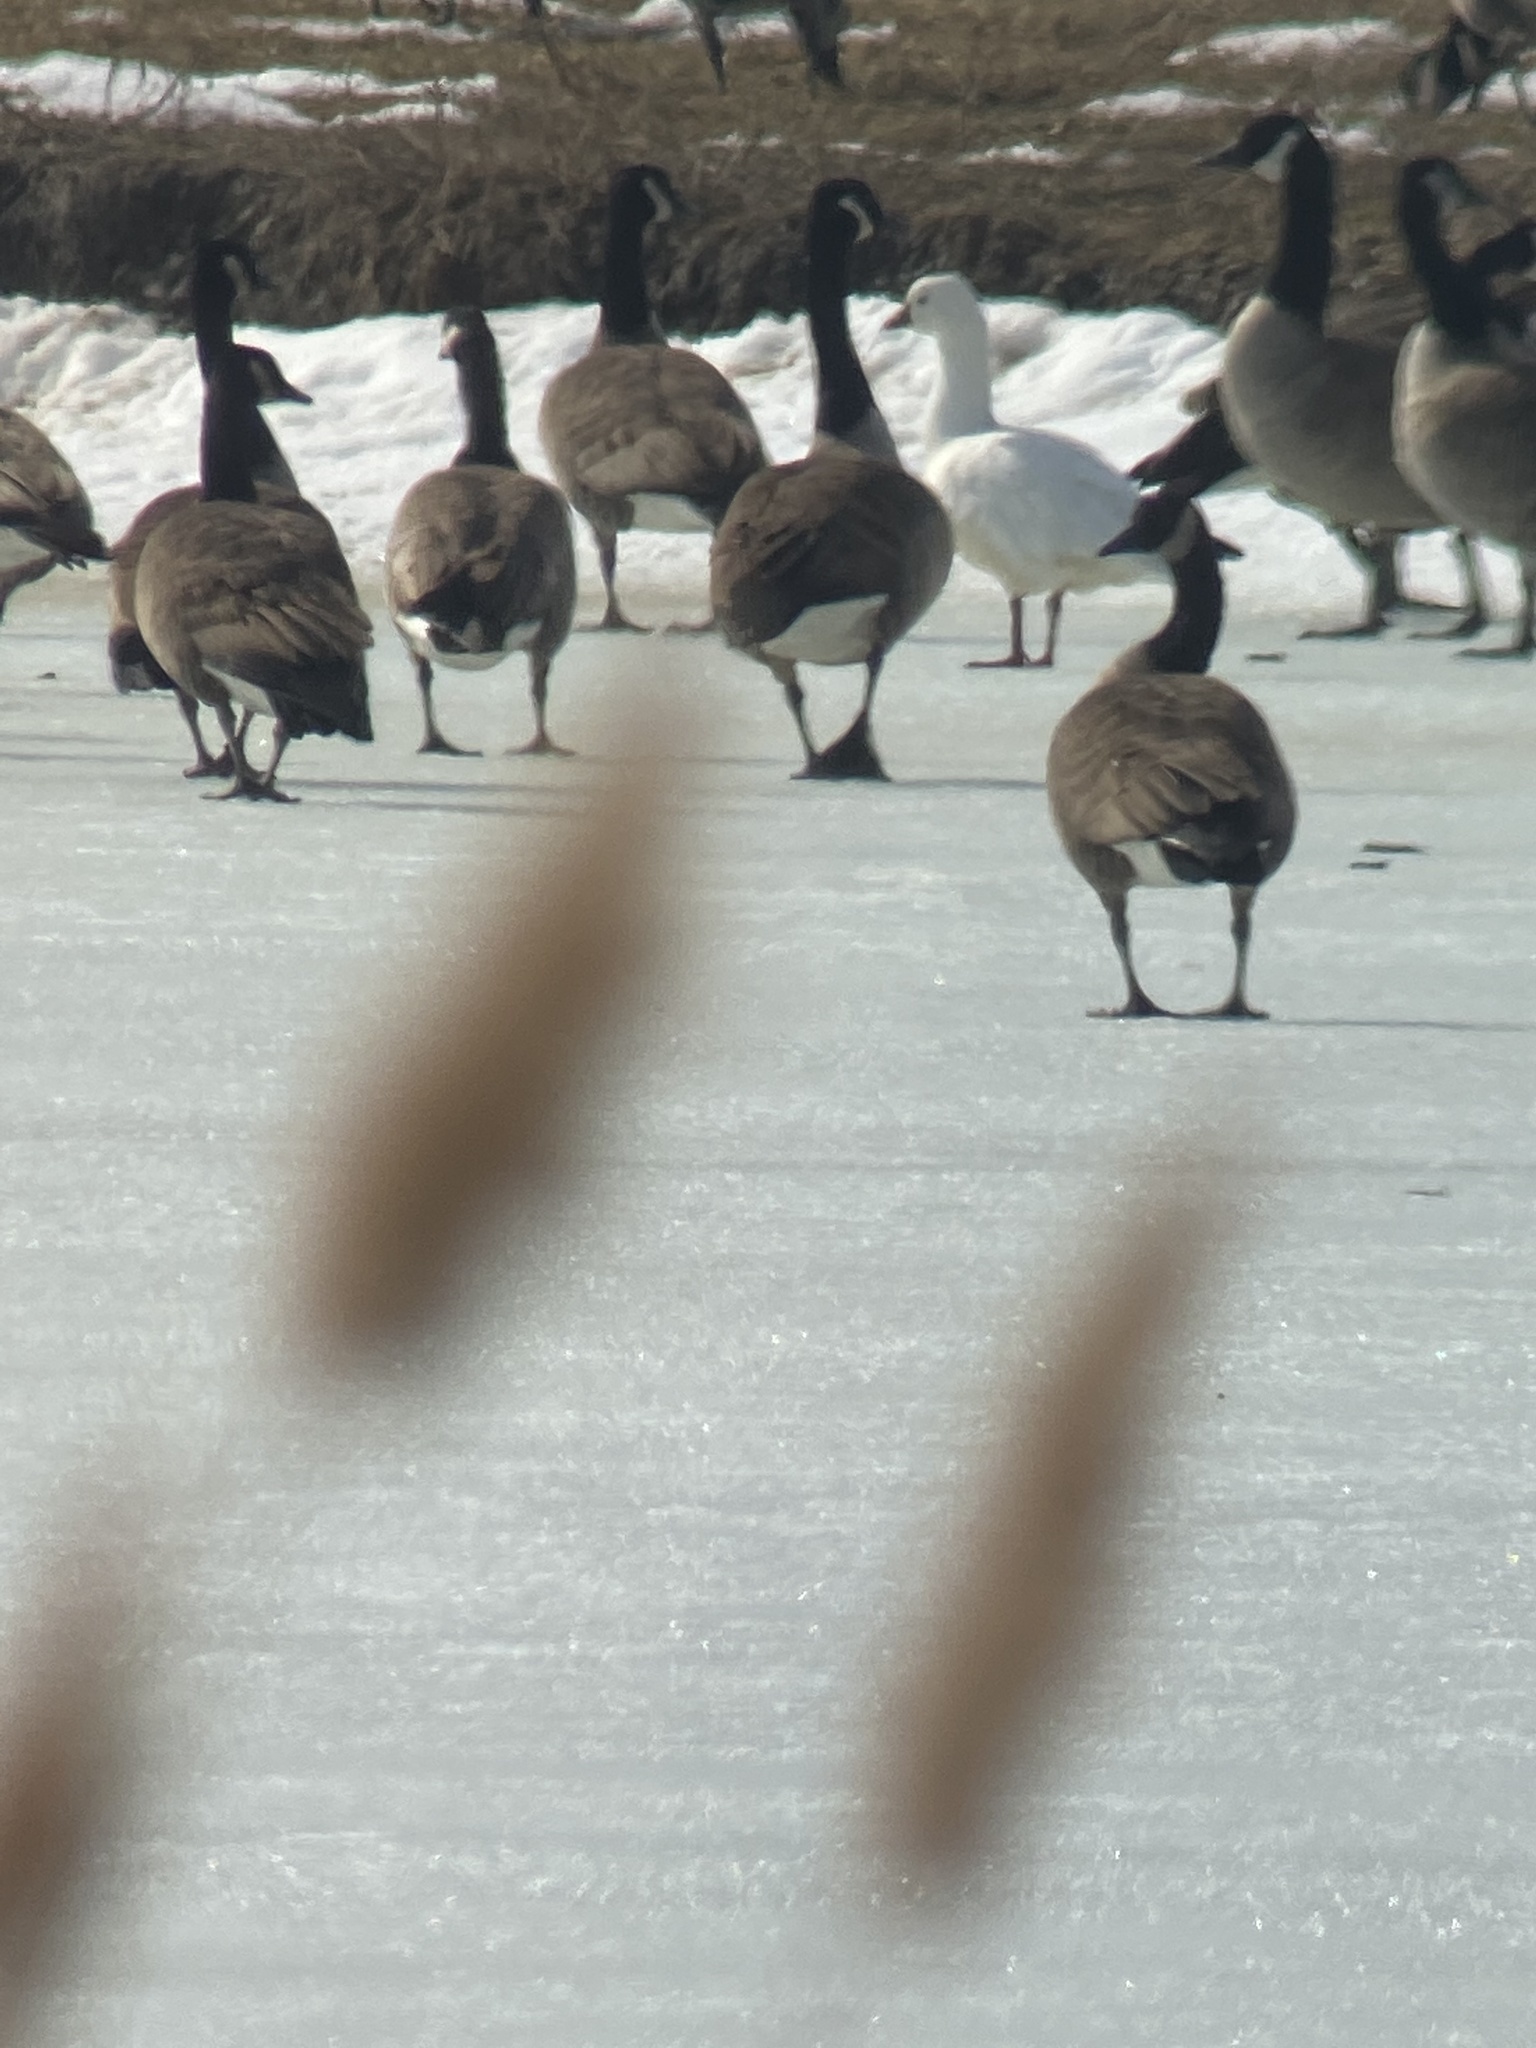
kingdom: Animalia
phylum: Chordata
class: Aves
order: Anseriformes
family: Anatidae
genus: Anser
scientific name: Anser rossii
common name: Ross's goose
